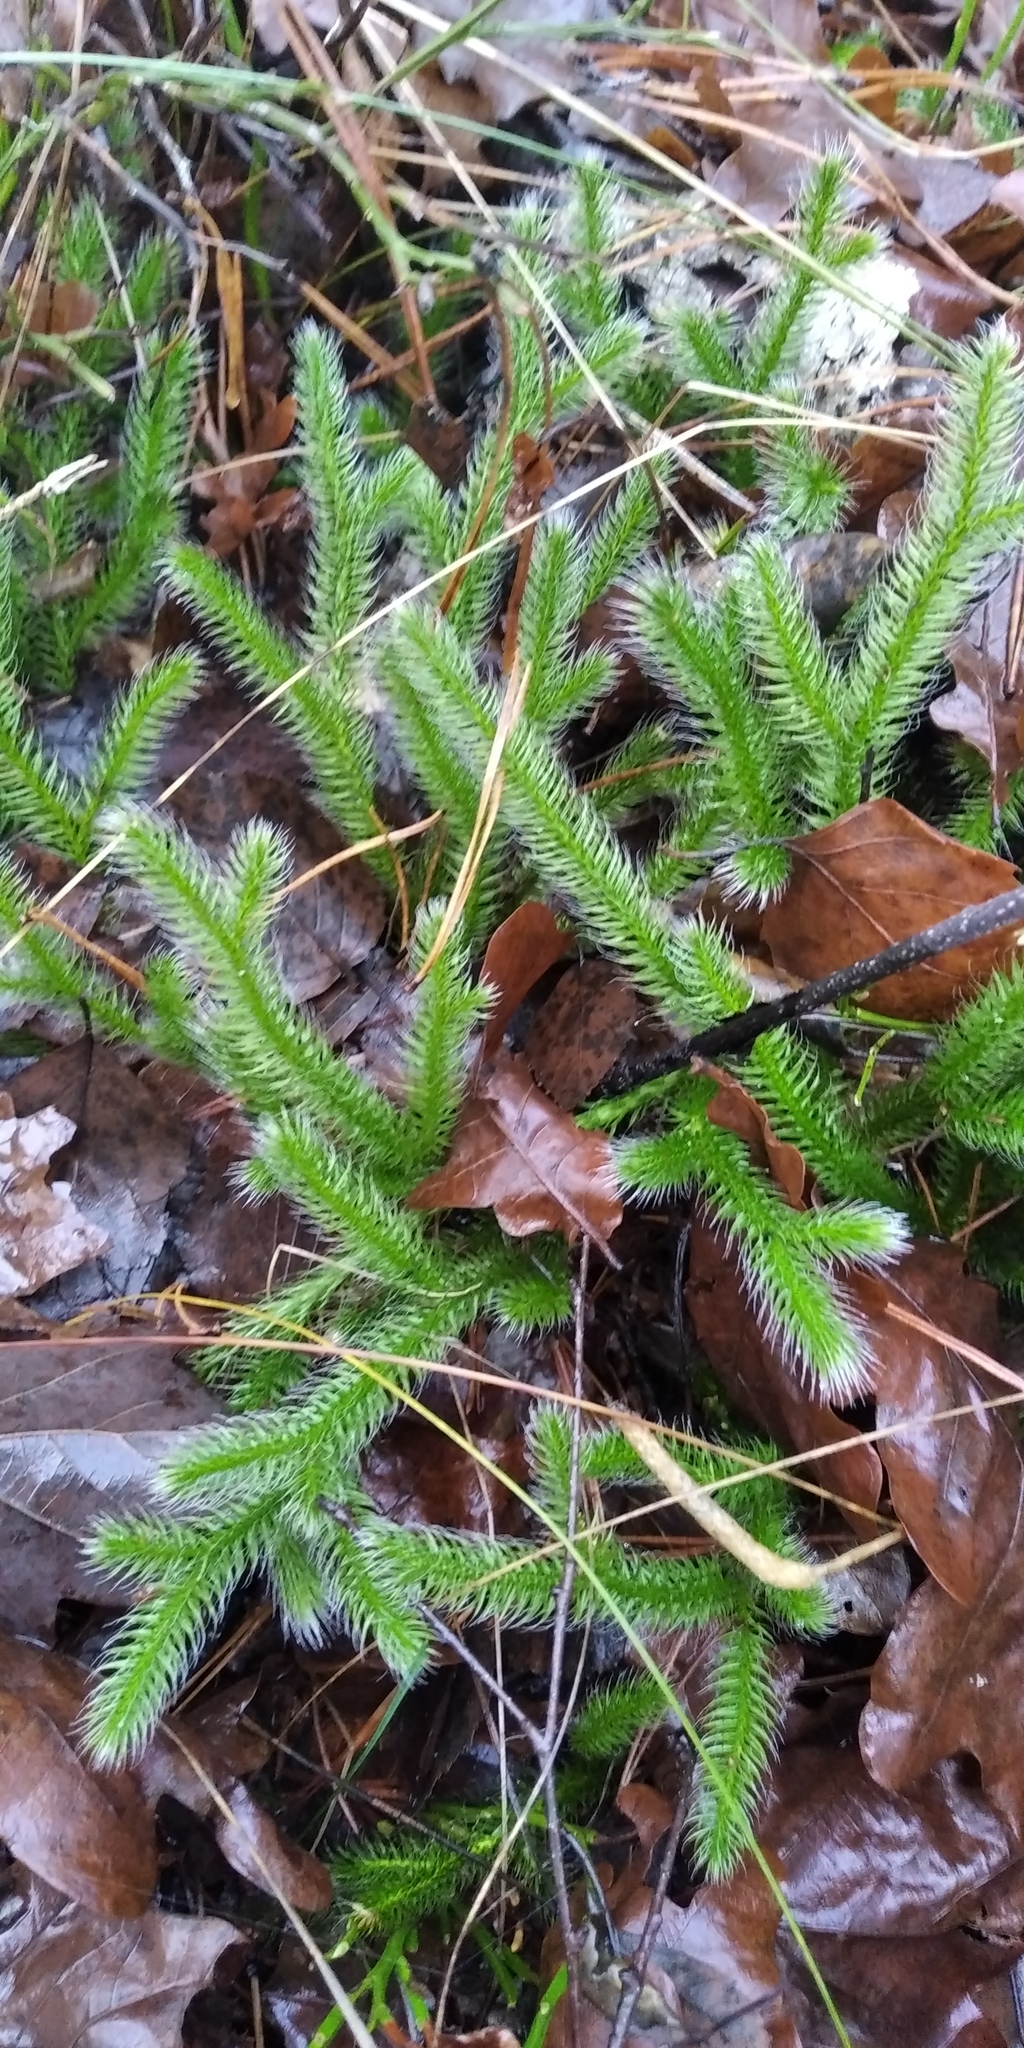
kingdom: Plantae
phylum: Tracheophyta
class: Lycopodiopsida
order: Lycopodiales
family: Lycopodiaceae
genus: Lycopodium
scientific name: Lycopodium clavatum
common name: Stag's-horn clubmoss
